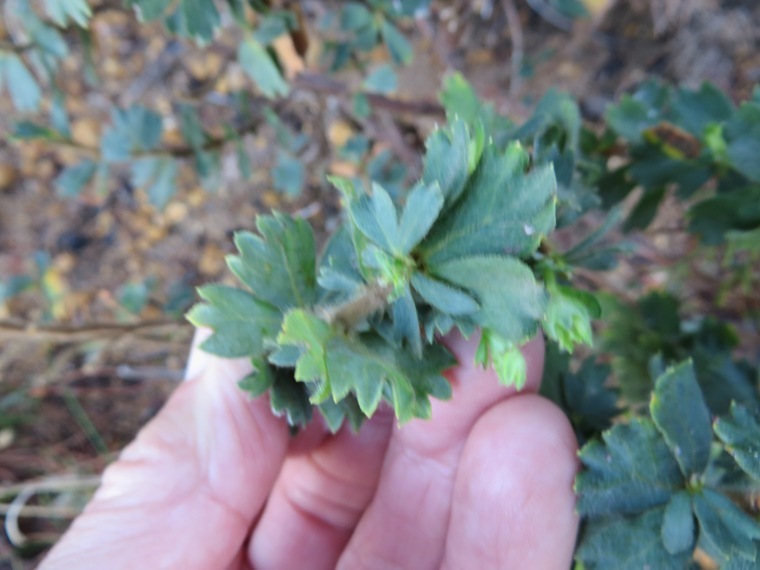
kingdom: Plantae
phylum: Tracheophyta
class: Magnoliopsida
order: Rosales
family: Rosaceae
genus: Cliffortia
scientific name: Cliffortia polygonifolia
